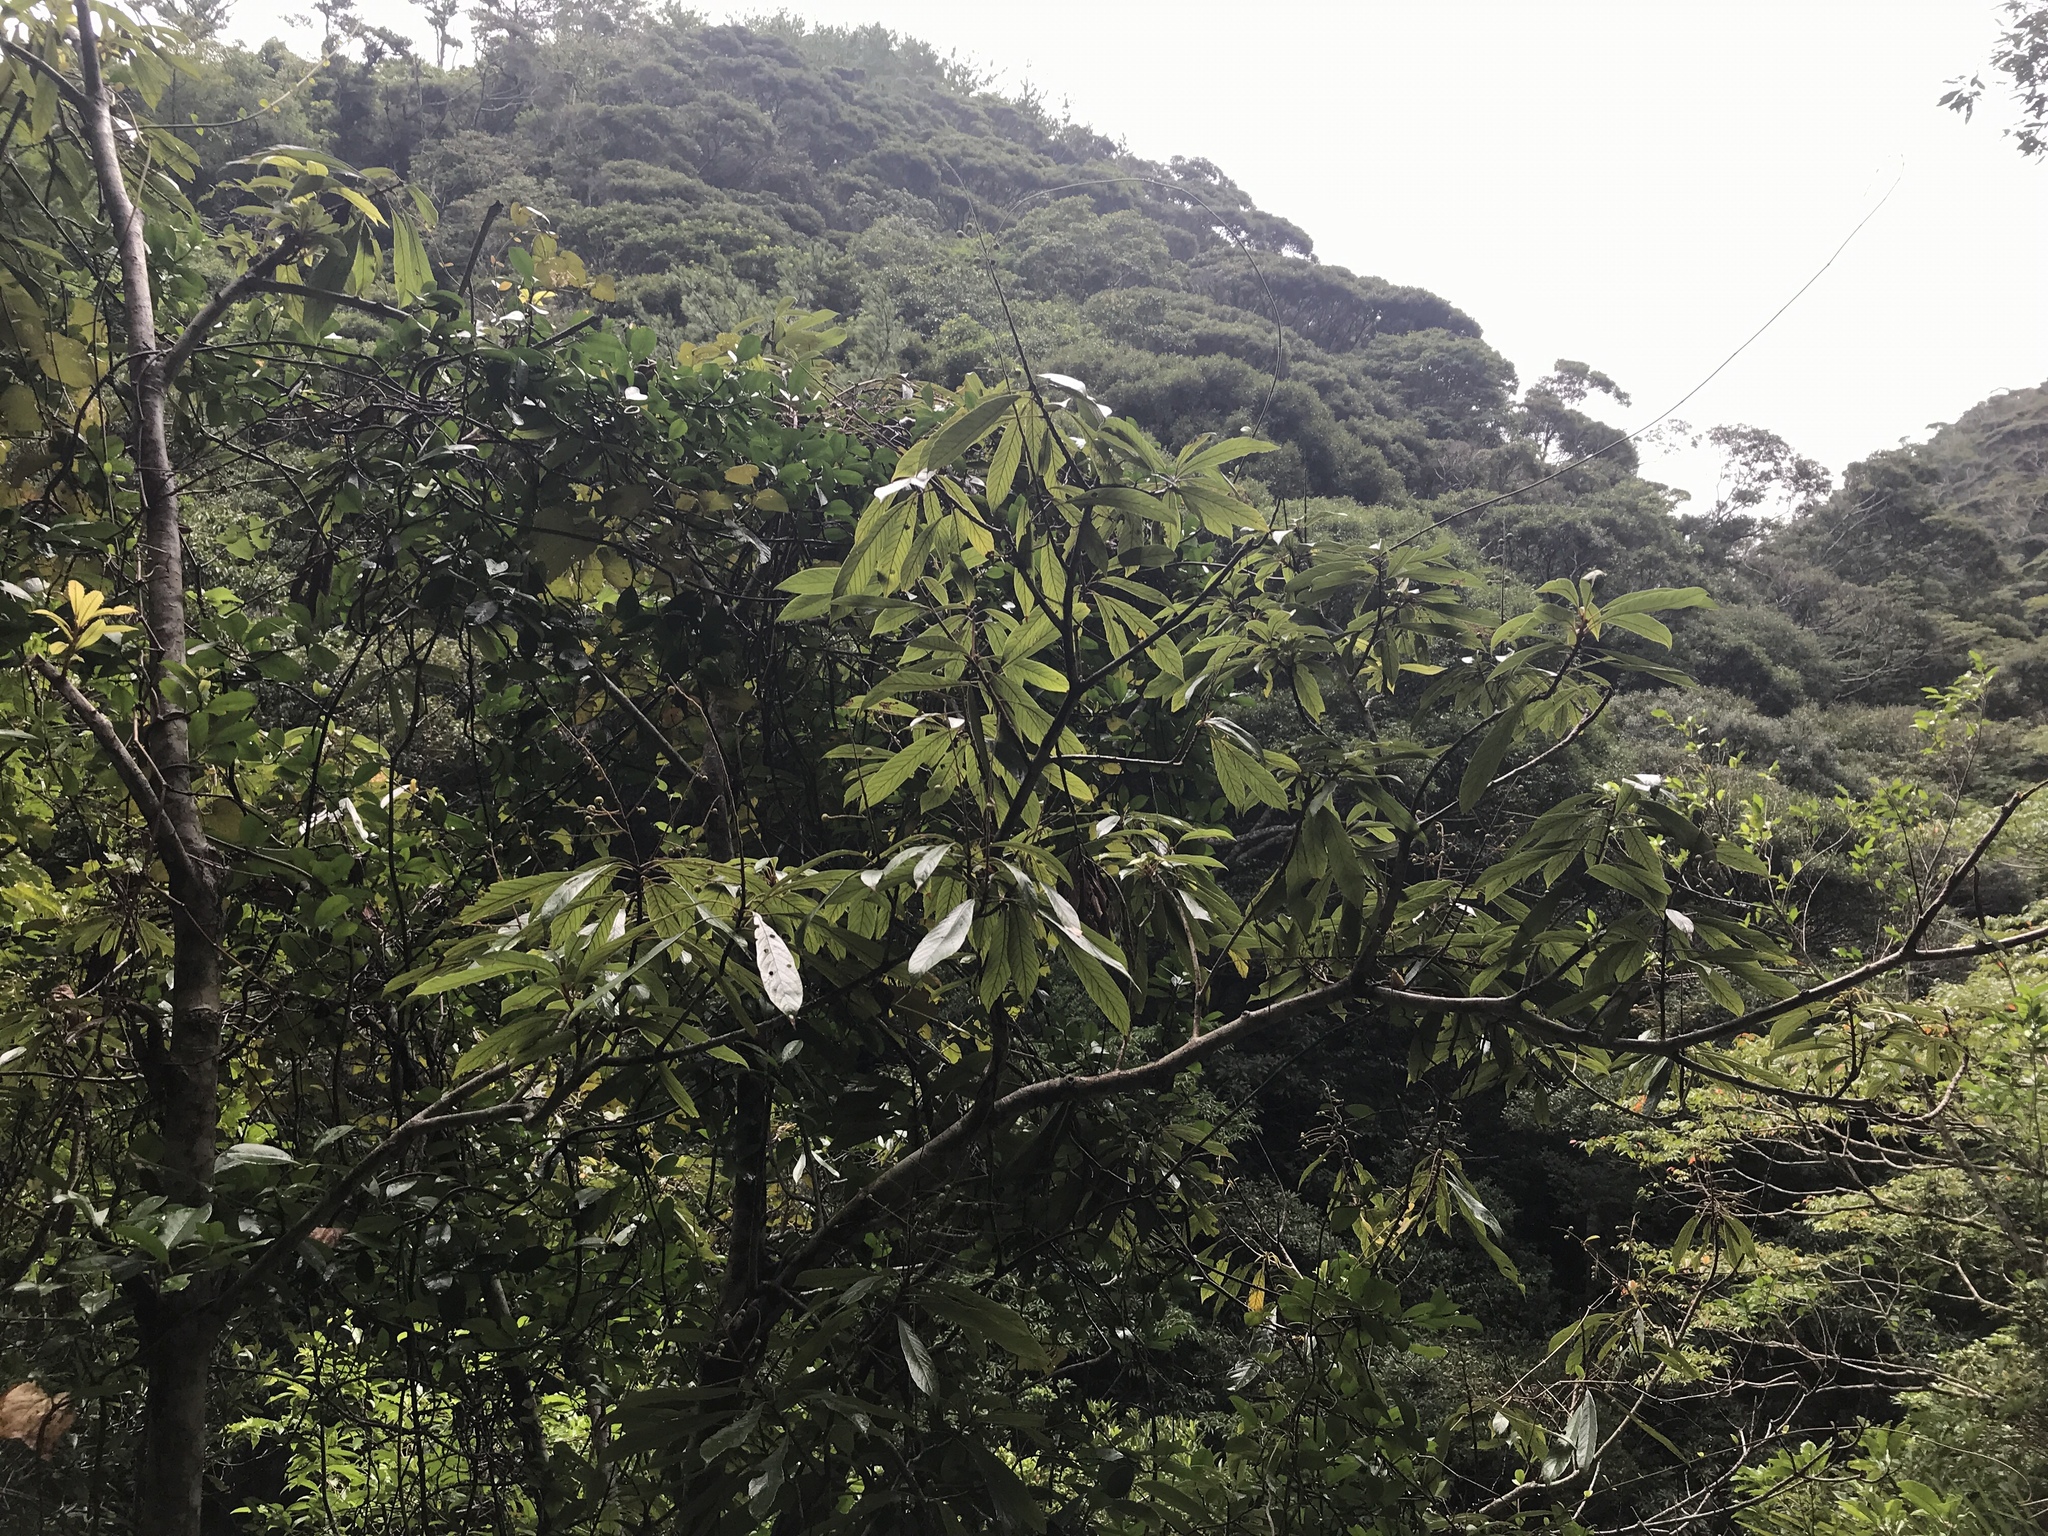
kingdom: Plantae
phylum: Tracheophyta
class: Magnoliopsida
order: Proteales
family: Sabiaceae
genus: Meliosma
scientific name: Meliosma rigida
